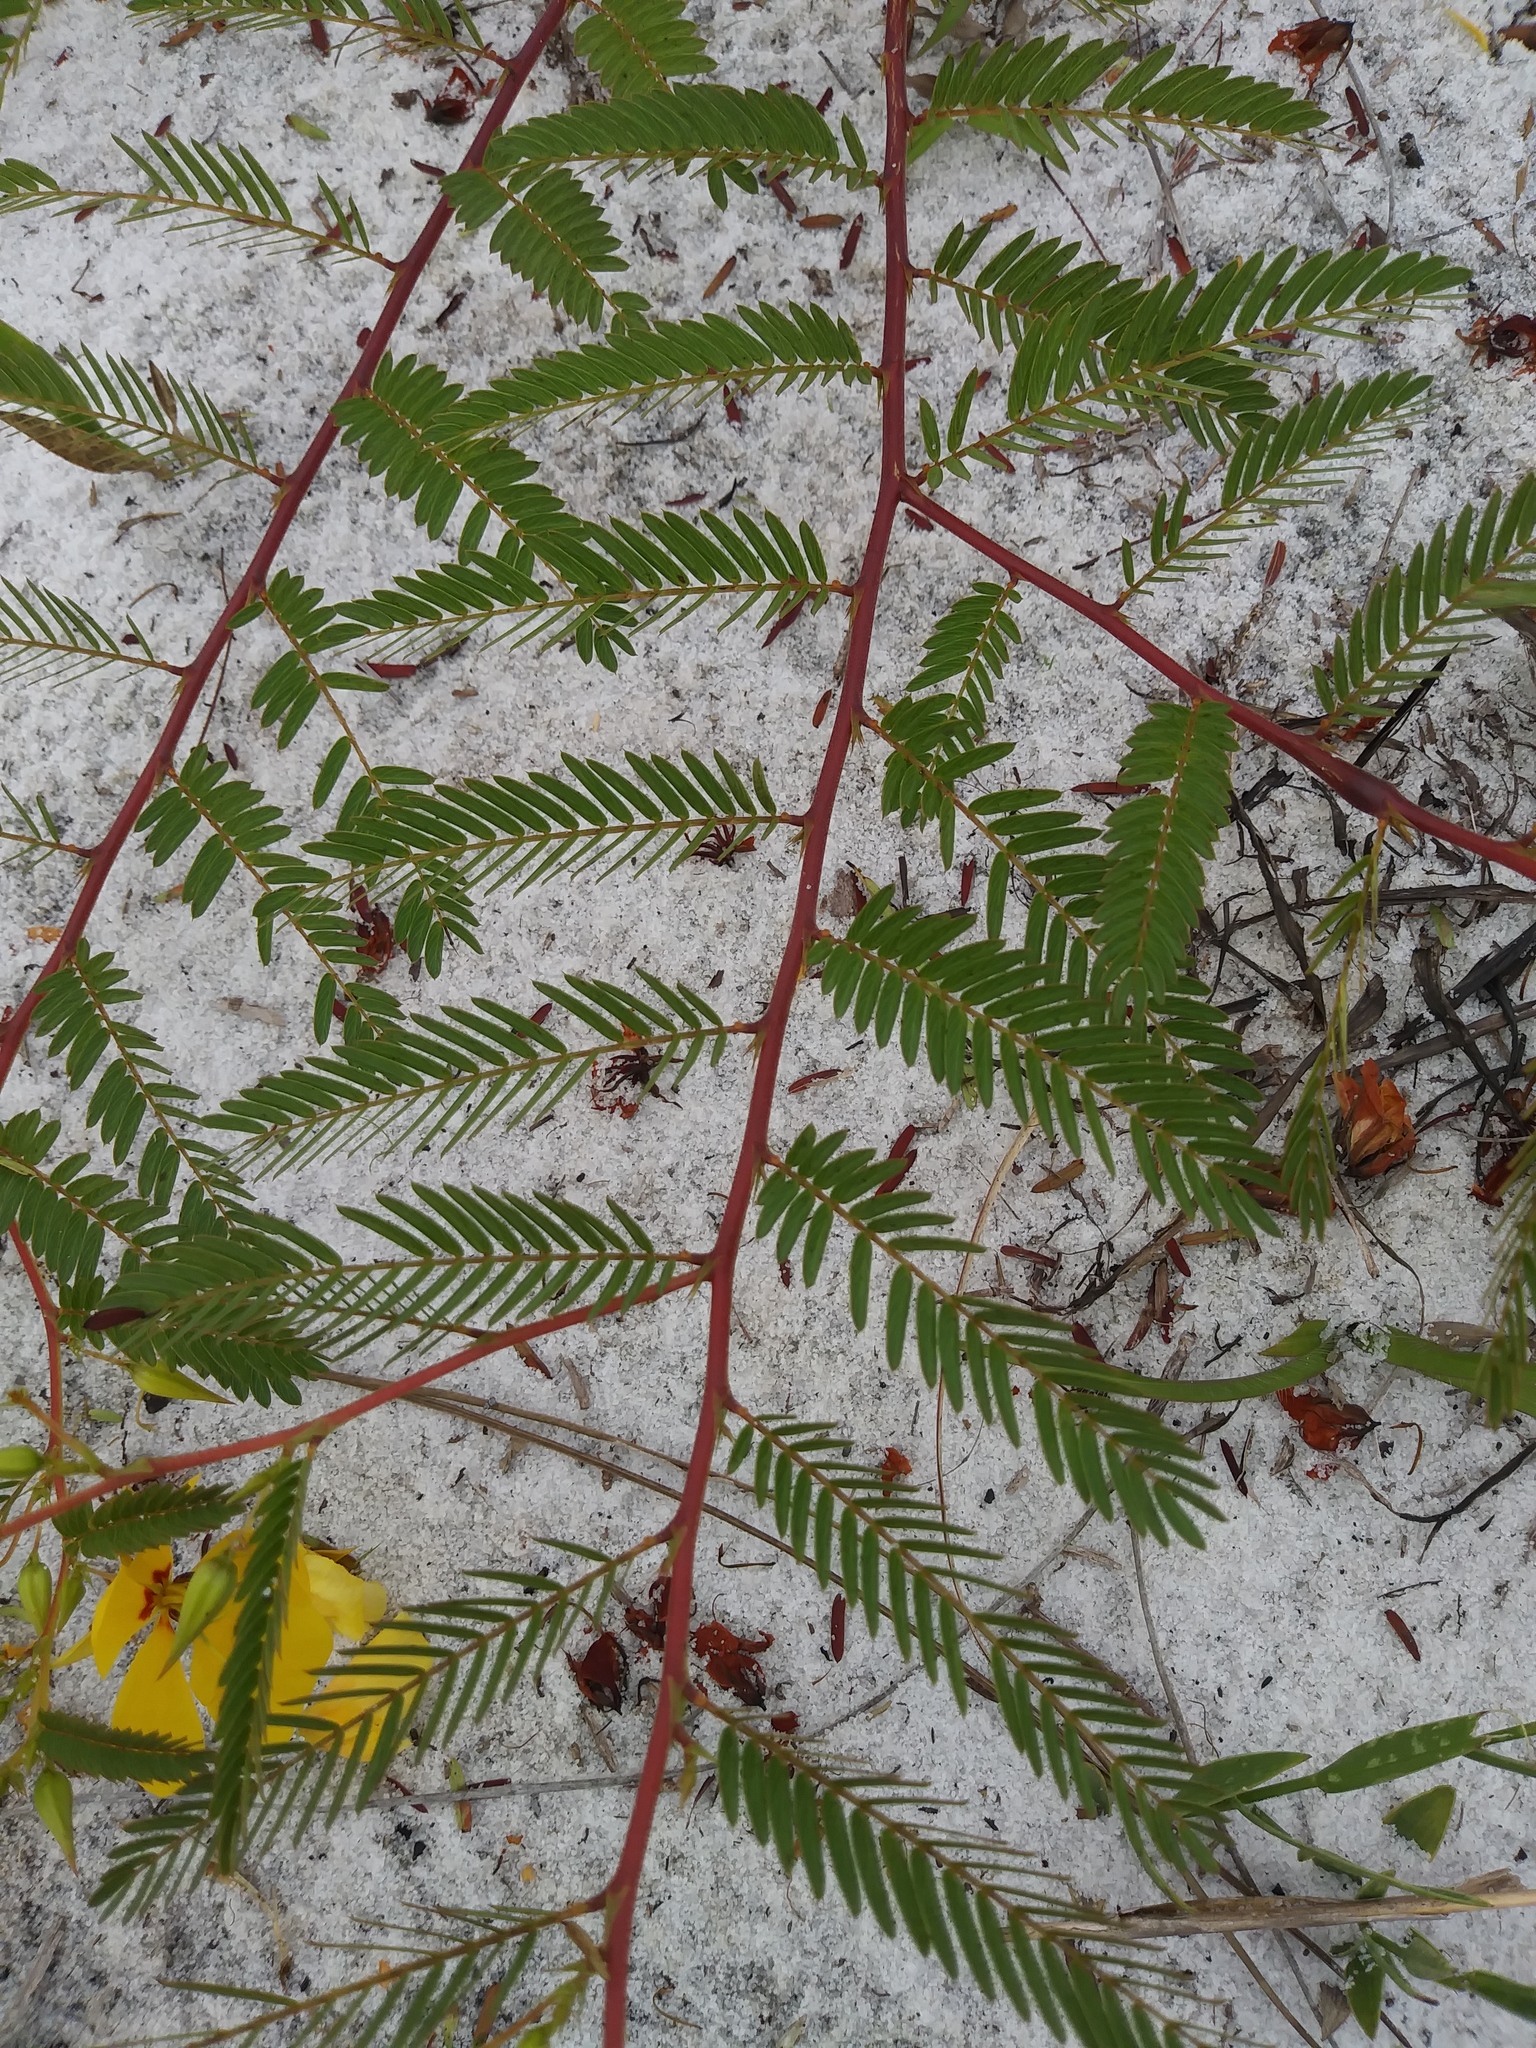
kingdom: Plantae
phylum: Tracheophyta
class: Magnoliopsida
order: Fabales
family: Fabaceae
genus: Chamaecrista
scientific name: Chamaecrista fasciculata
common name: Golden cassia
